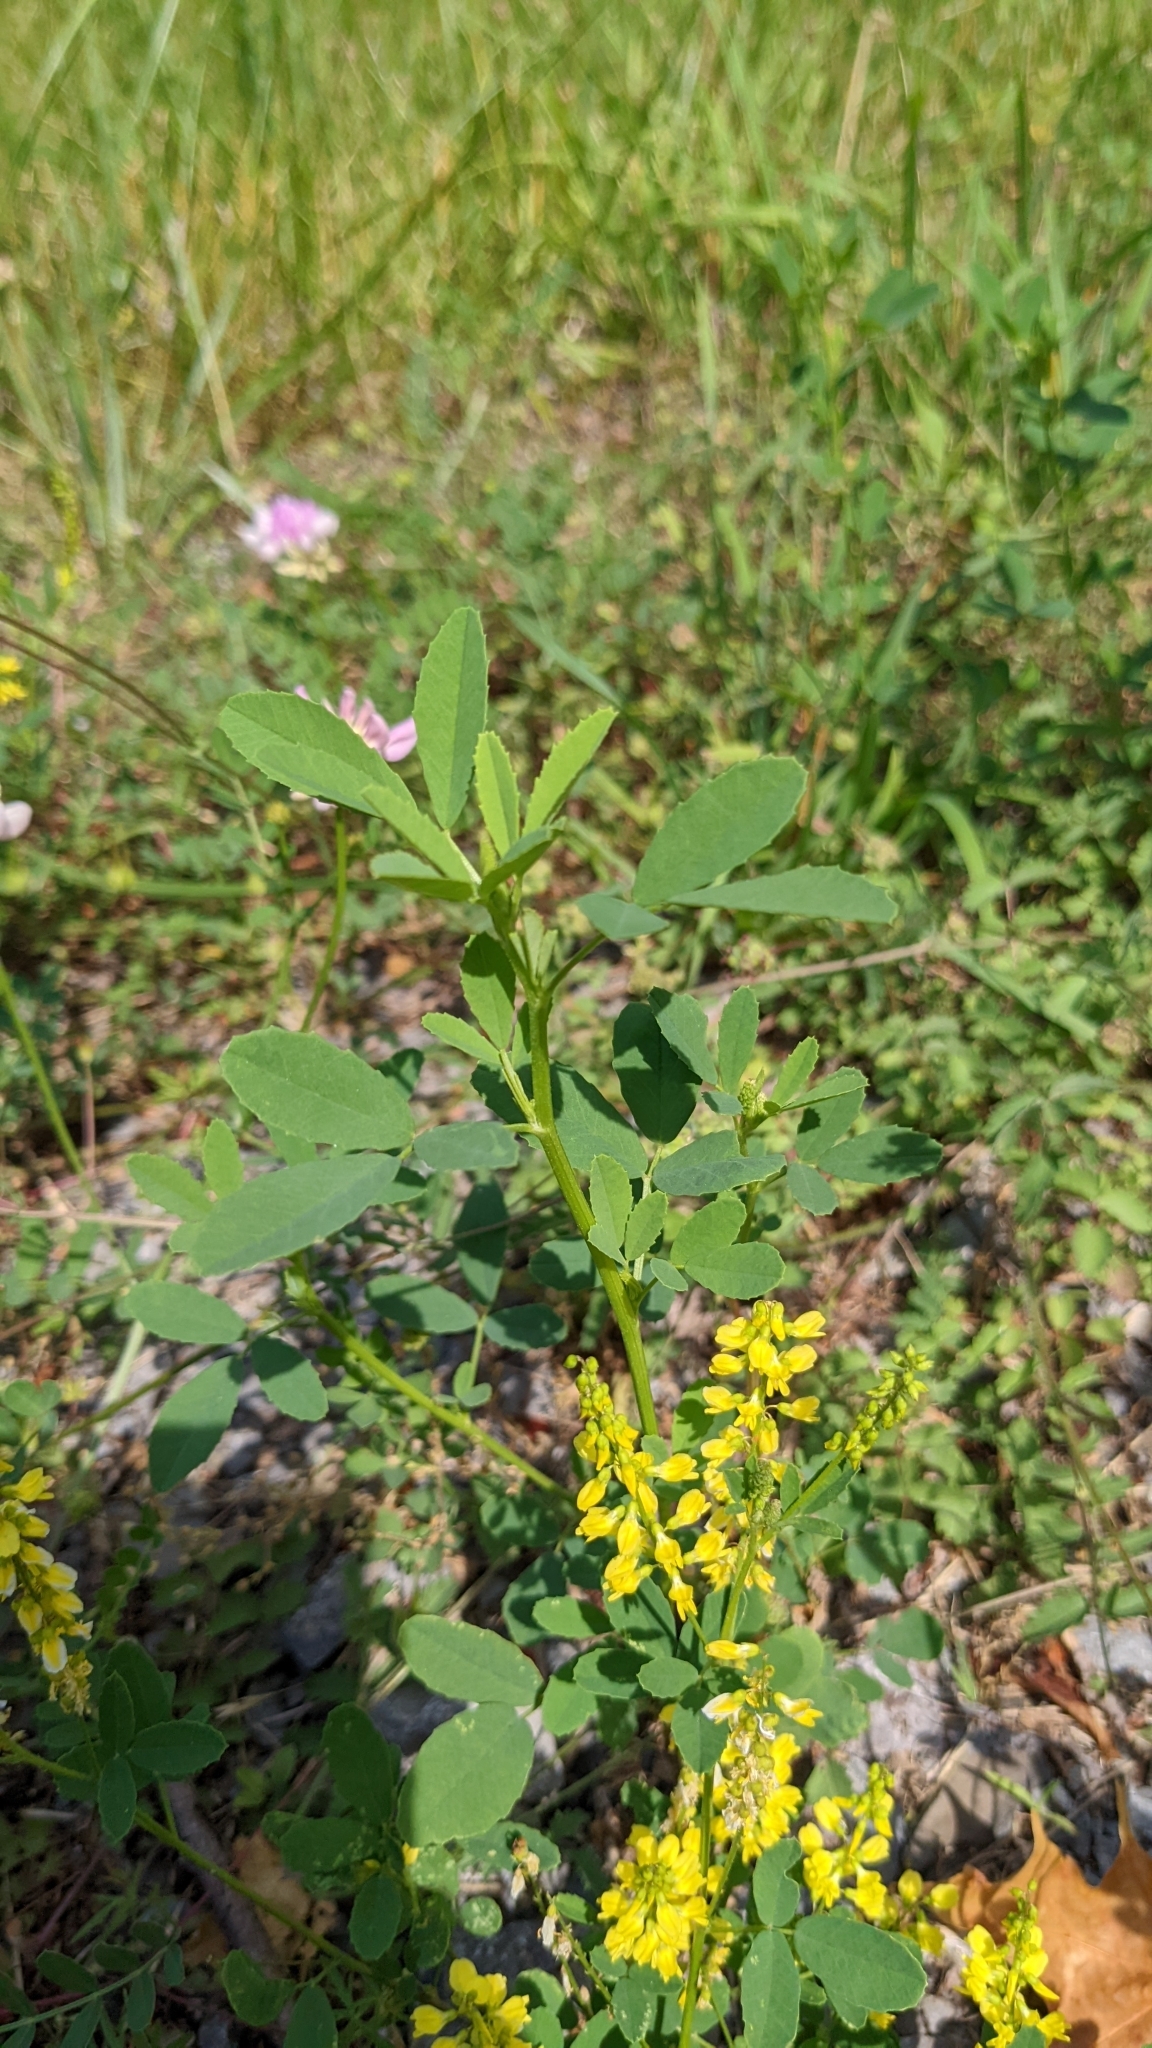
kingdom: Plantae
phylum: Tracheophyta
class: Magnoliopsida
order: Fabales
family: Fabaceae
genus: Melilotus
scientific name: Melilotus officinalis
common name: Sweetclover
